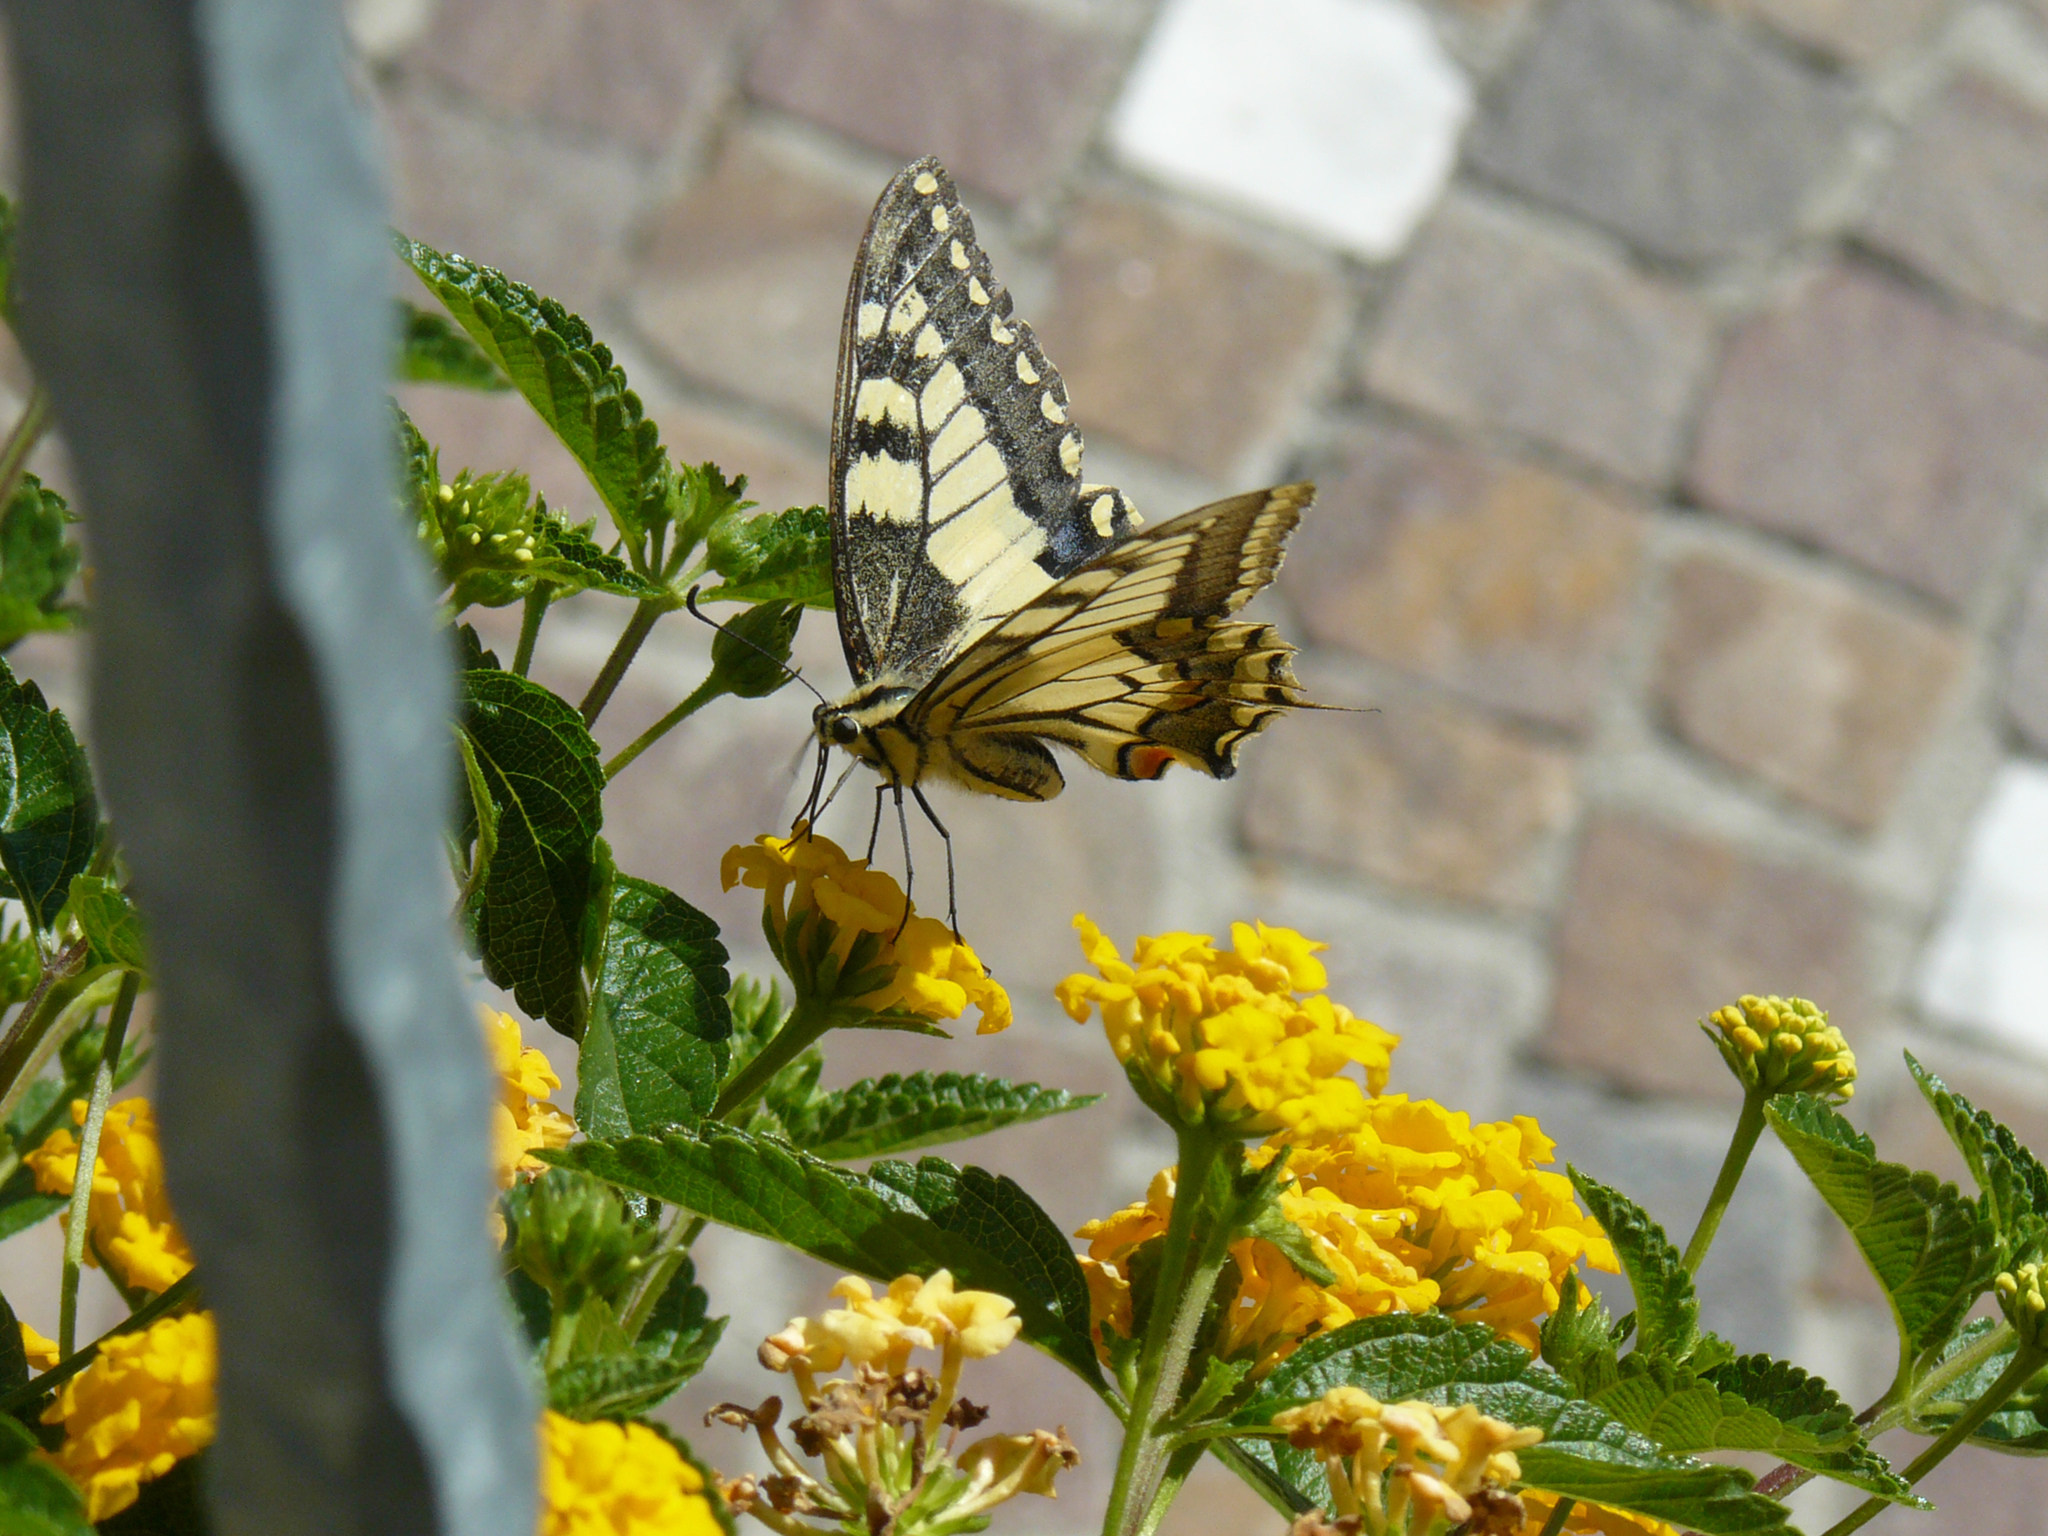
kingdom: Animalia
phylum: Arthropoda
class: Insecta
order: Lepidoptera
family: Papilionidae
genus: Papilio
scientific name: Papilio machaon
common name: Swallowtail
